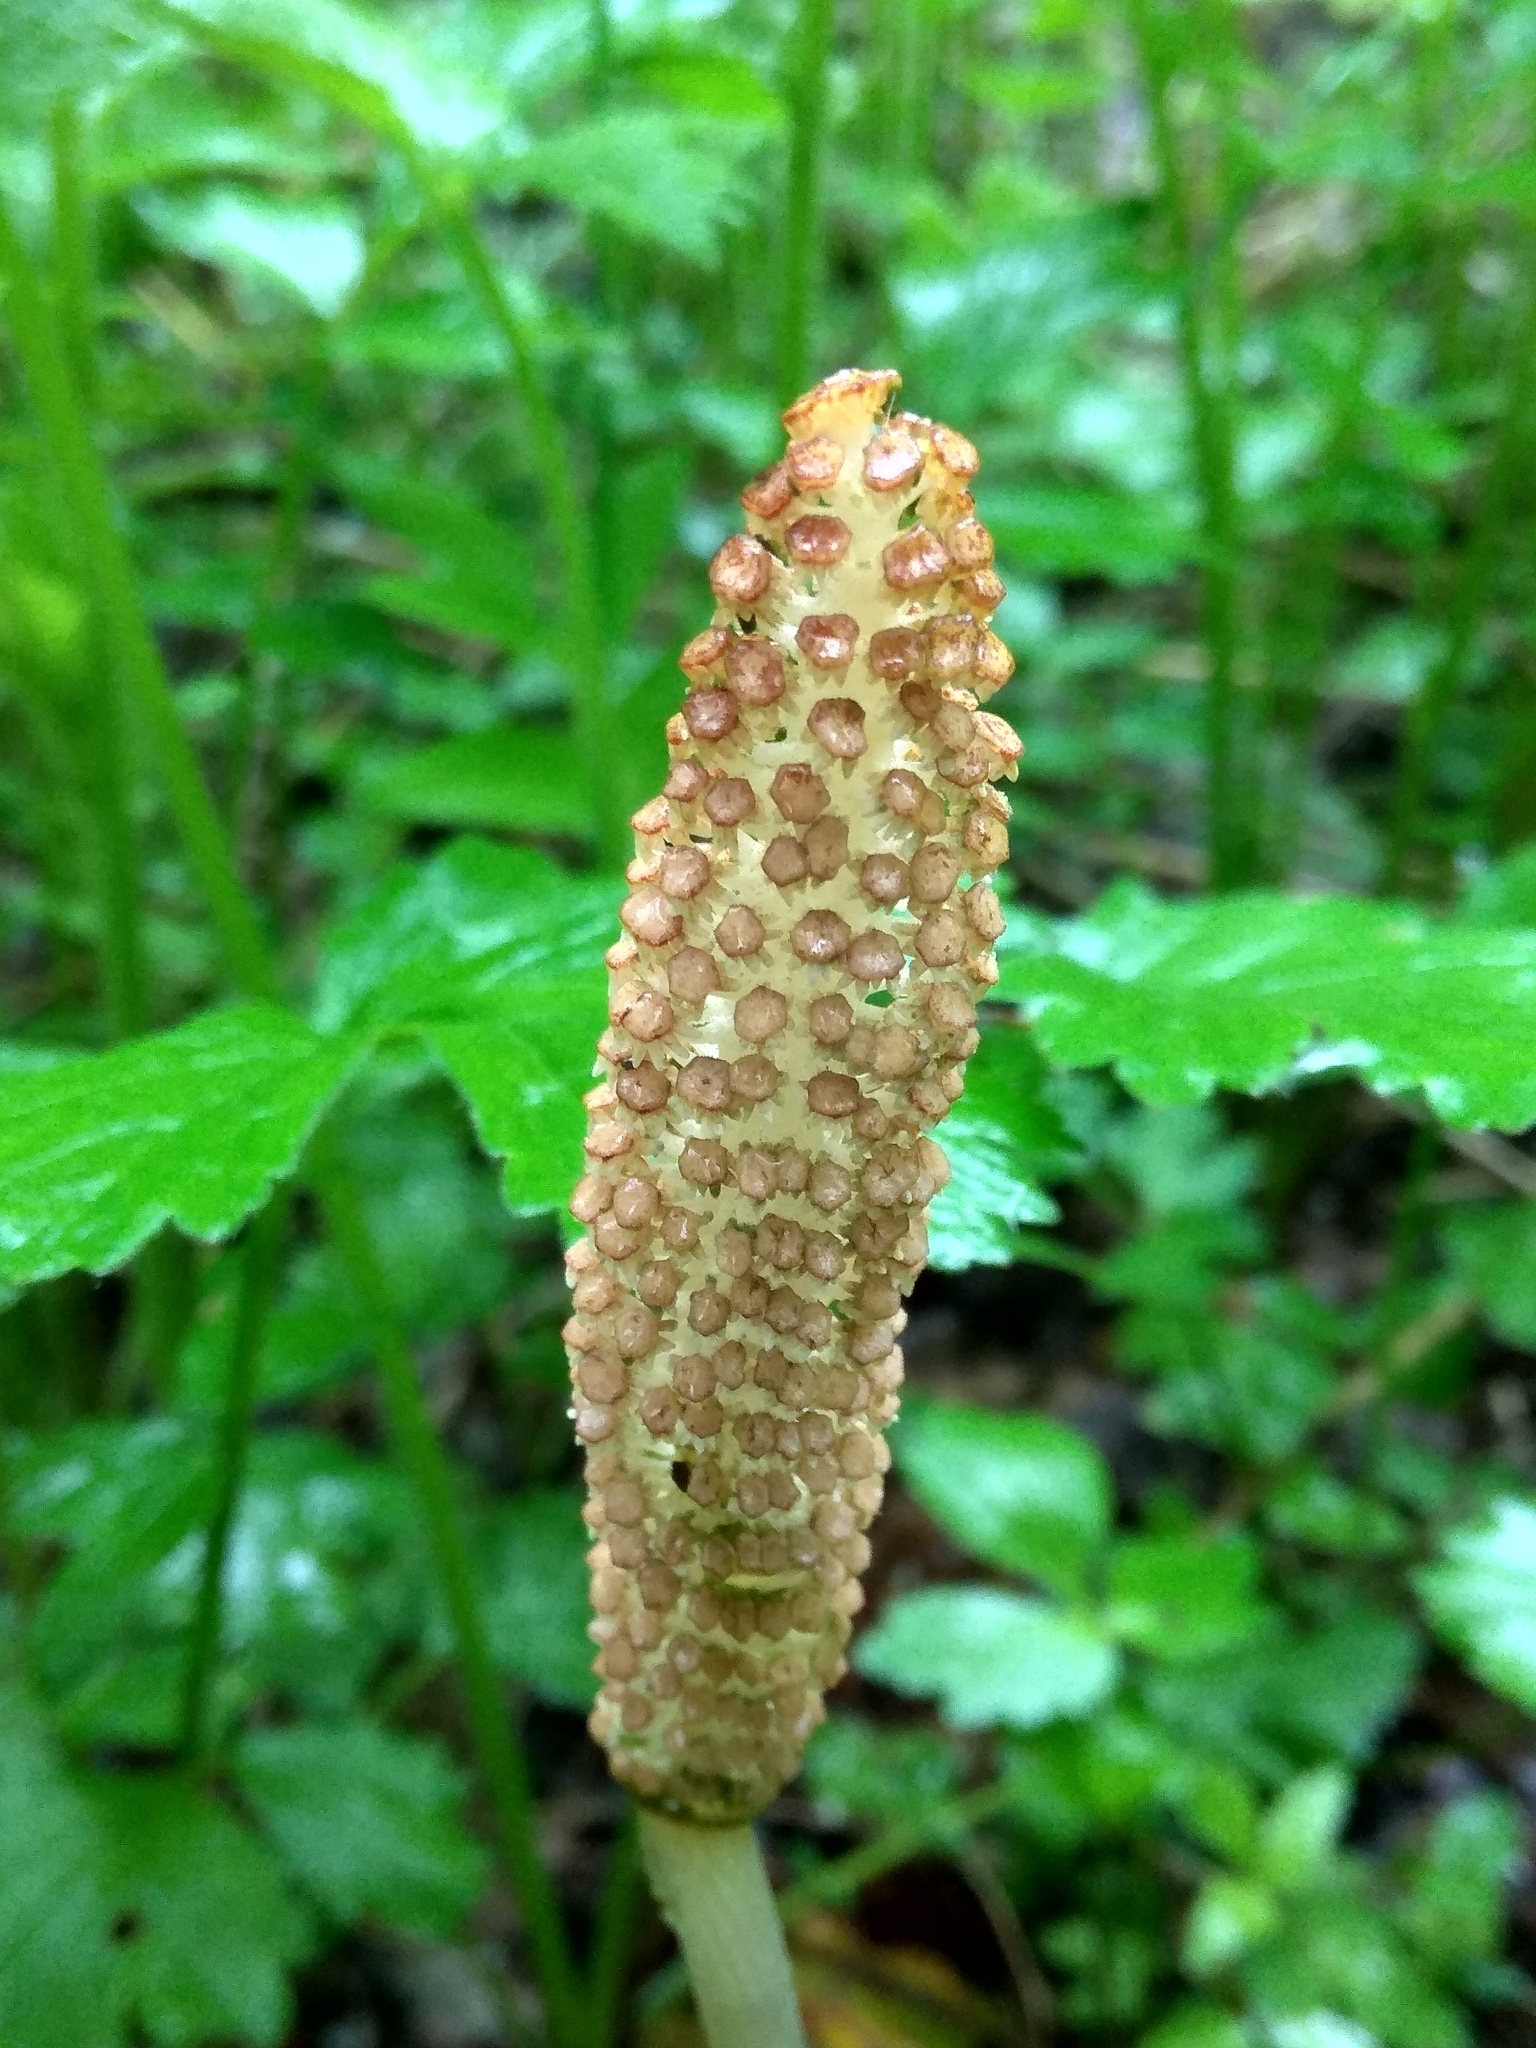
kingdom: Plantae
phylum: Tracheophyta
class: Polypodiopsida
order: Equisetales
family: Equisetaceae
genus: Equisetum
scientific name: Equisetum arvense
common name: Field horsetail
